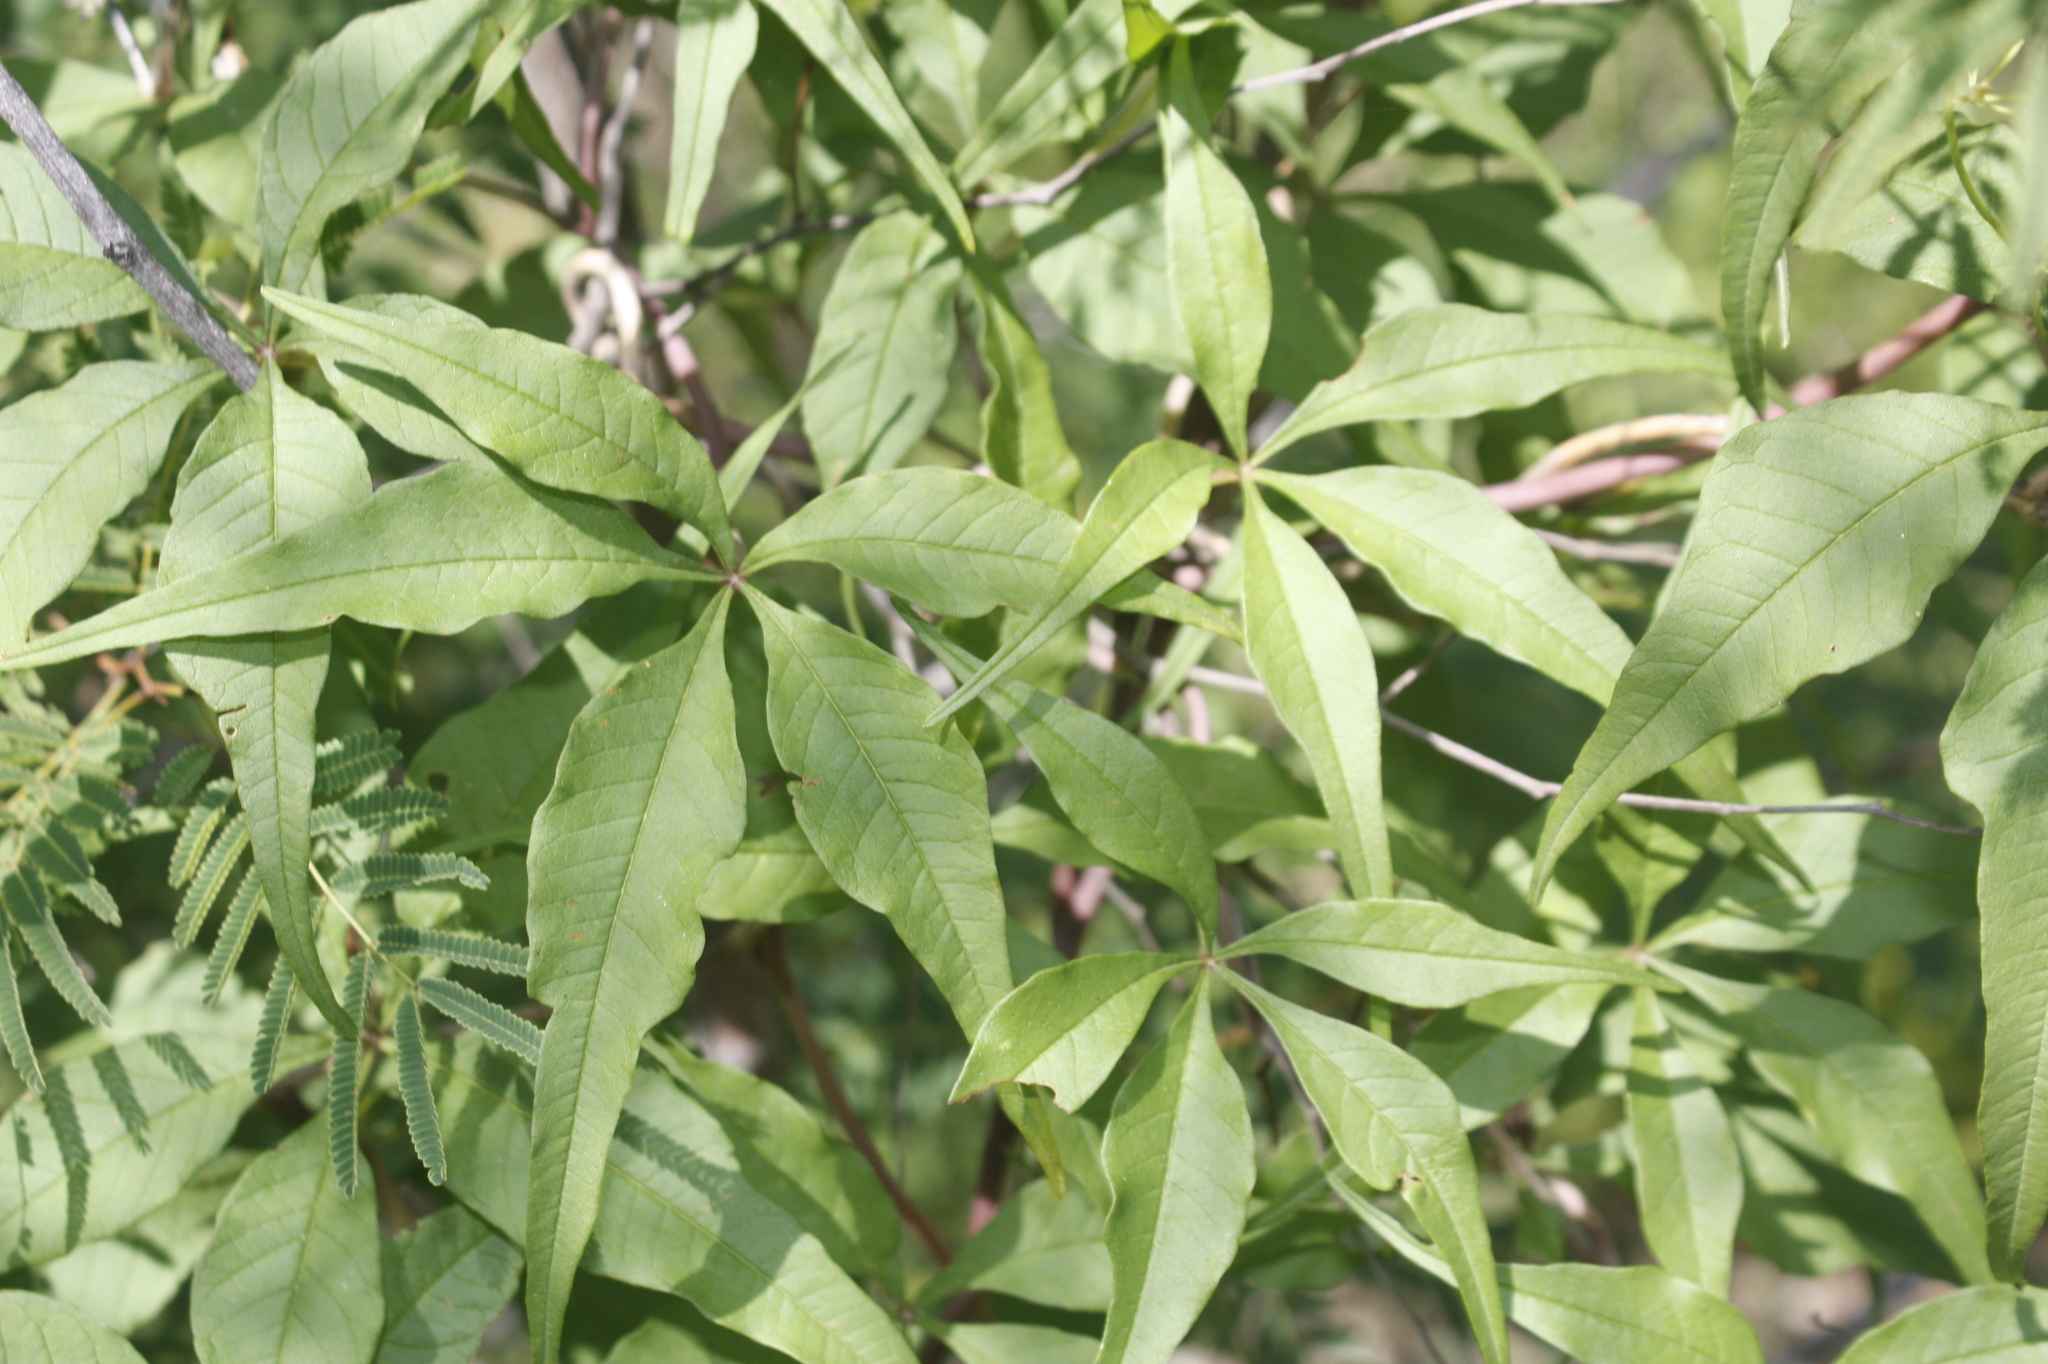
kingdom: Plantae
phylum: Tracheophyta
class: Magnoliopsida
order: Solanales
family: Convolvulaceae
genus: Distimake
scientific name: Distimake palmeri
